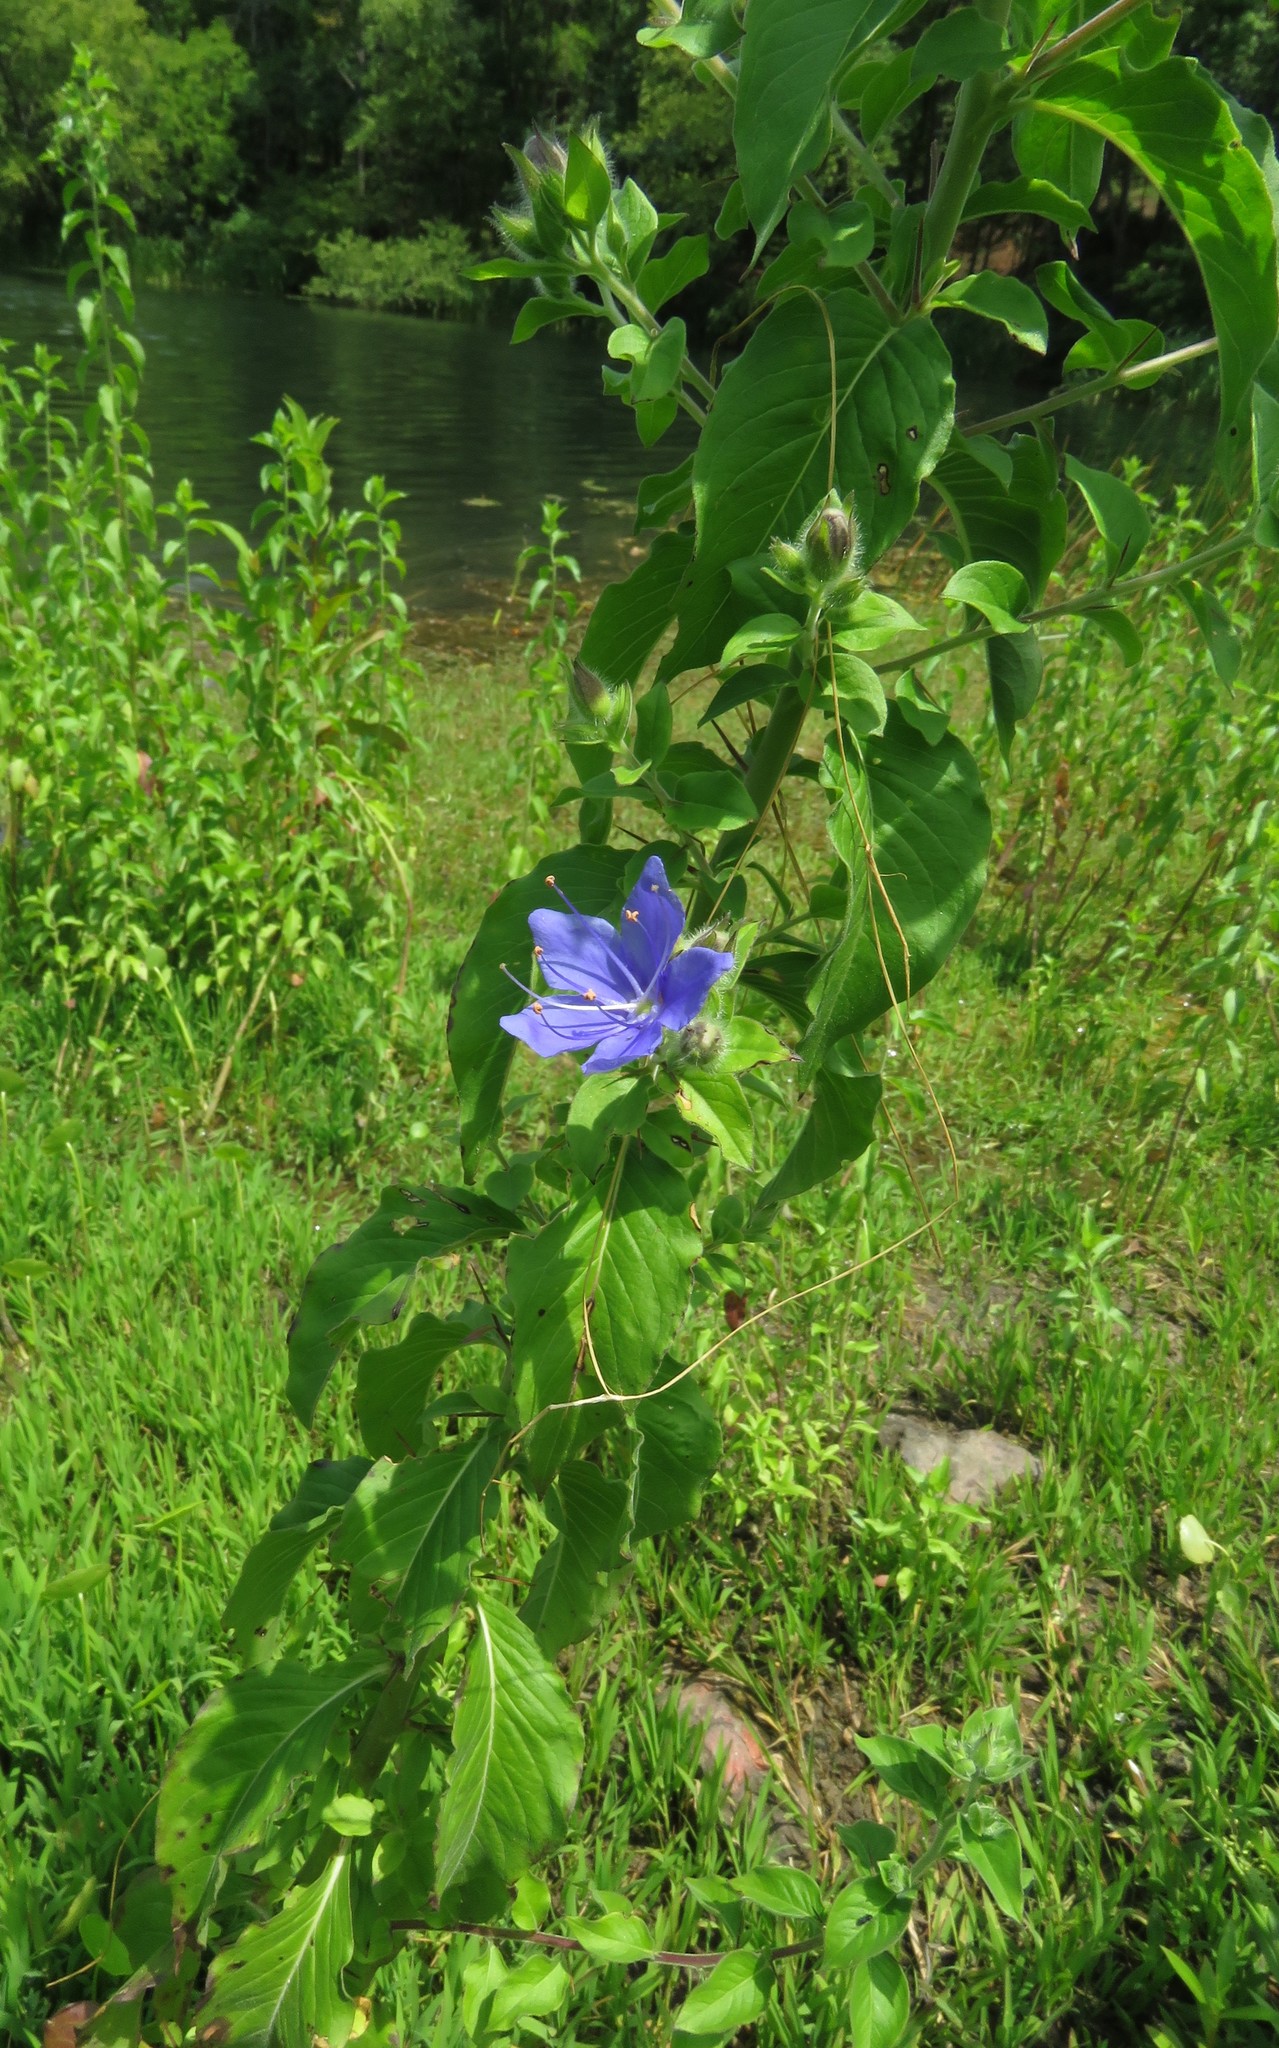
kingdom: Plantae
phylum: Tracheophyta
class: Magnoliopsida
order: Solanales
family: Hydroleaceae
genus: Hydrolea
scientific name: Hydrolea ovata
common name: Ovate false fiddleleaf
